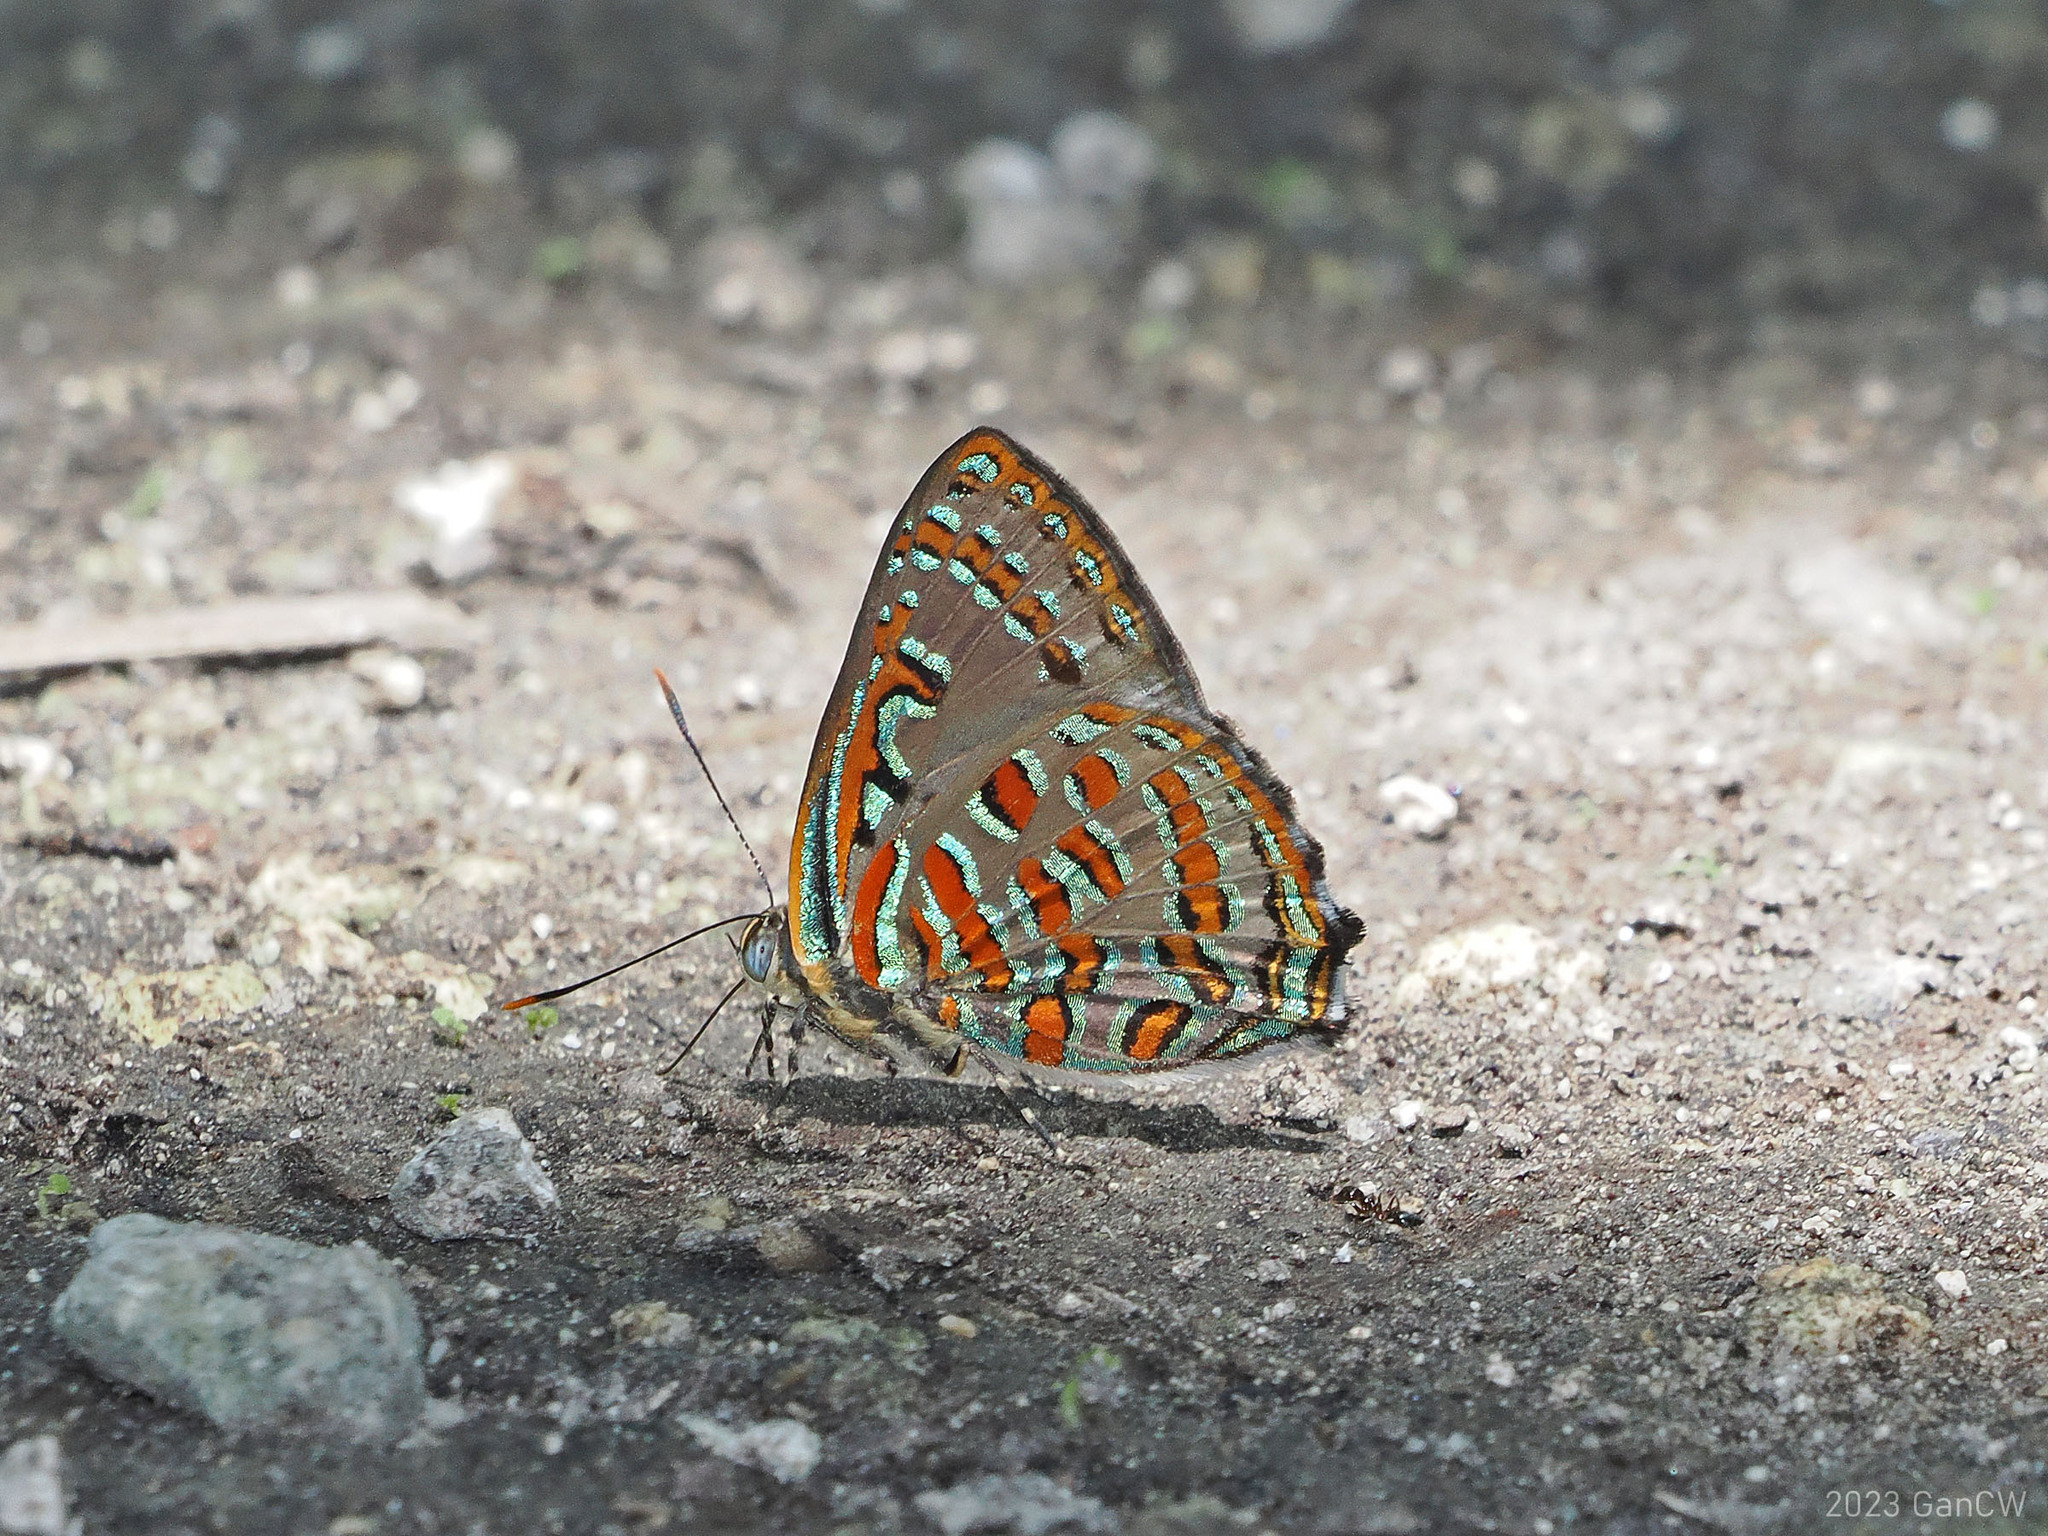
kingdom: Animalia
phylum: Arthropoda
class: Insecta
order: Lepidoptera
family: Lycaenidae
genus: Hypochrysops
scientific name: Hypochrysops pythias
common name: Peacock jewel
